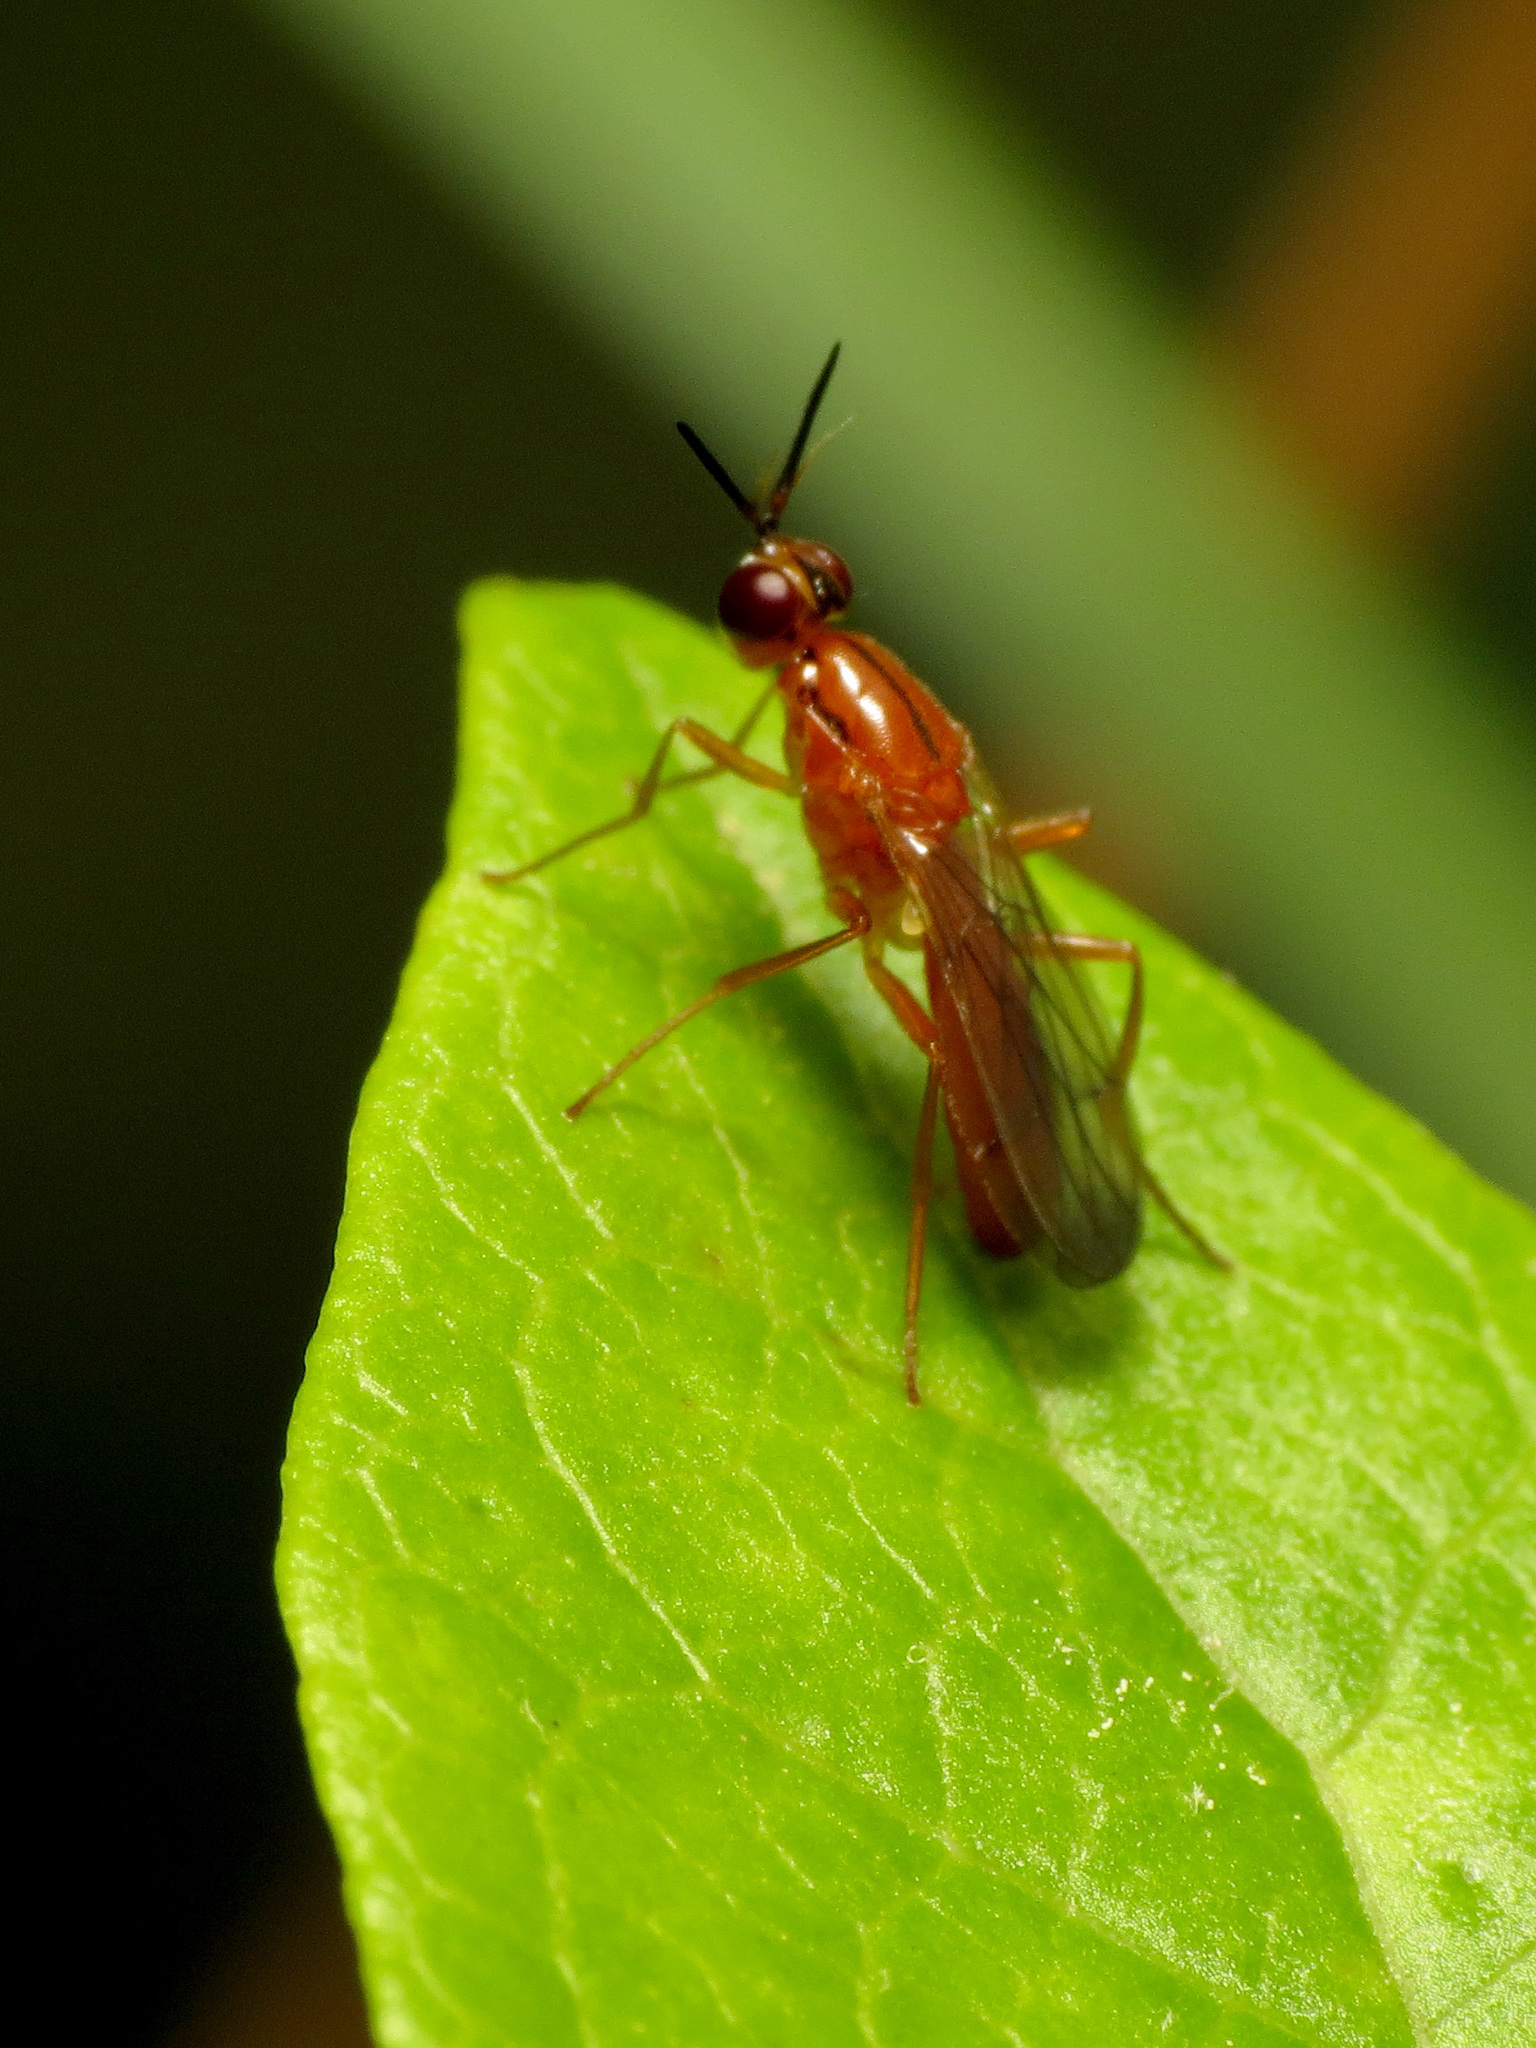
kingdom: Animalia
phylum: Arthropoda
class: Insecta
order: Diptera
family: Psilidae
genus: Loxocera
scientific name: Loxocera cylindrica
